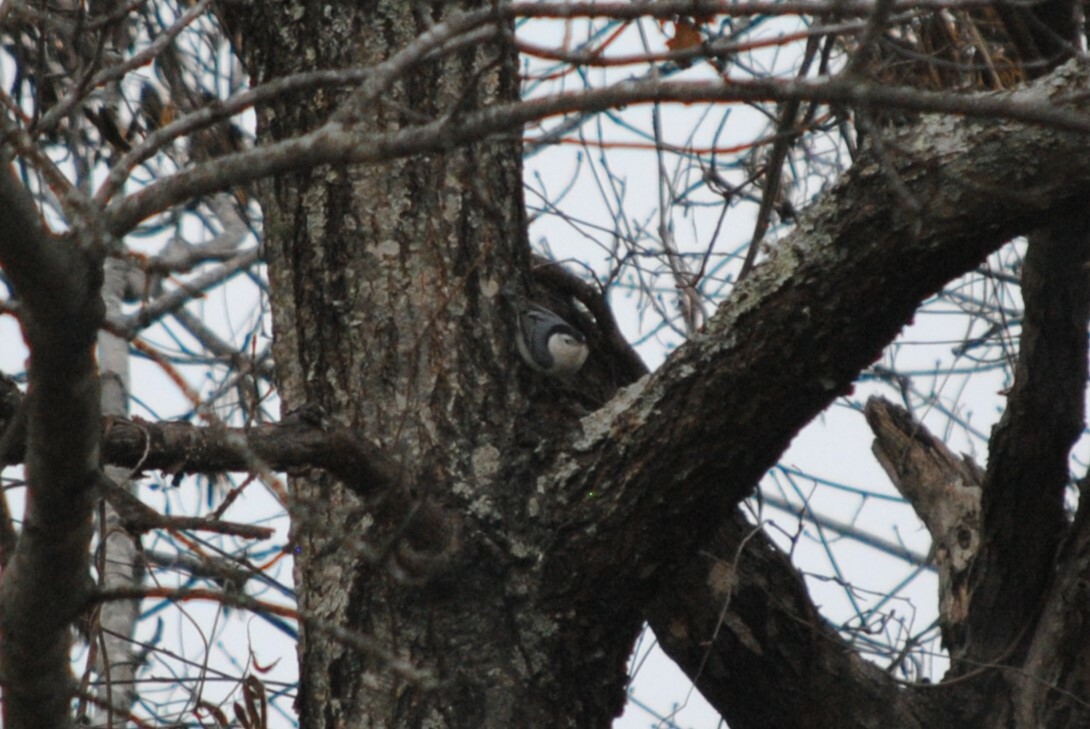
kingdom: Animalia
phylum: Chordata
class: Aves
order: Passeriformes
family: Sittidae
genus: Sitta
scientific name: Sitta carolinensis
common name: White-breasted nuthatch
